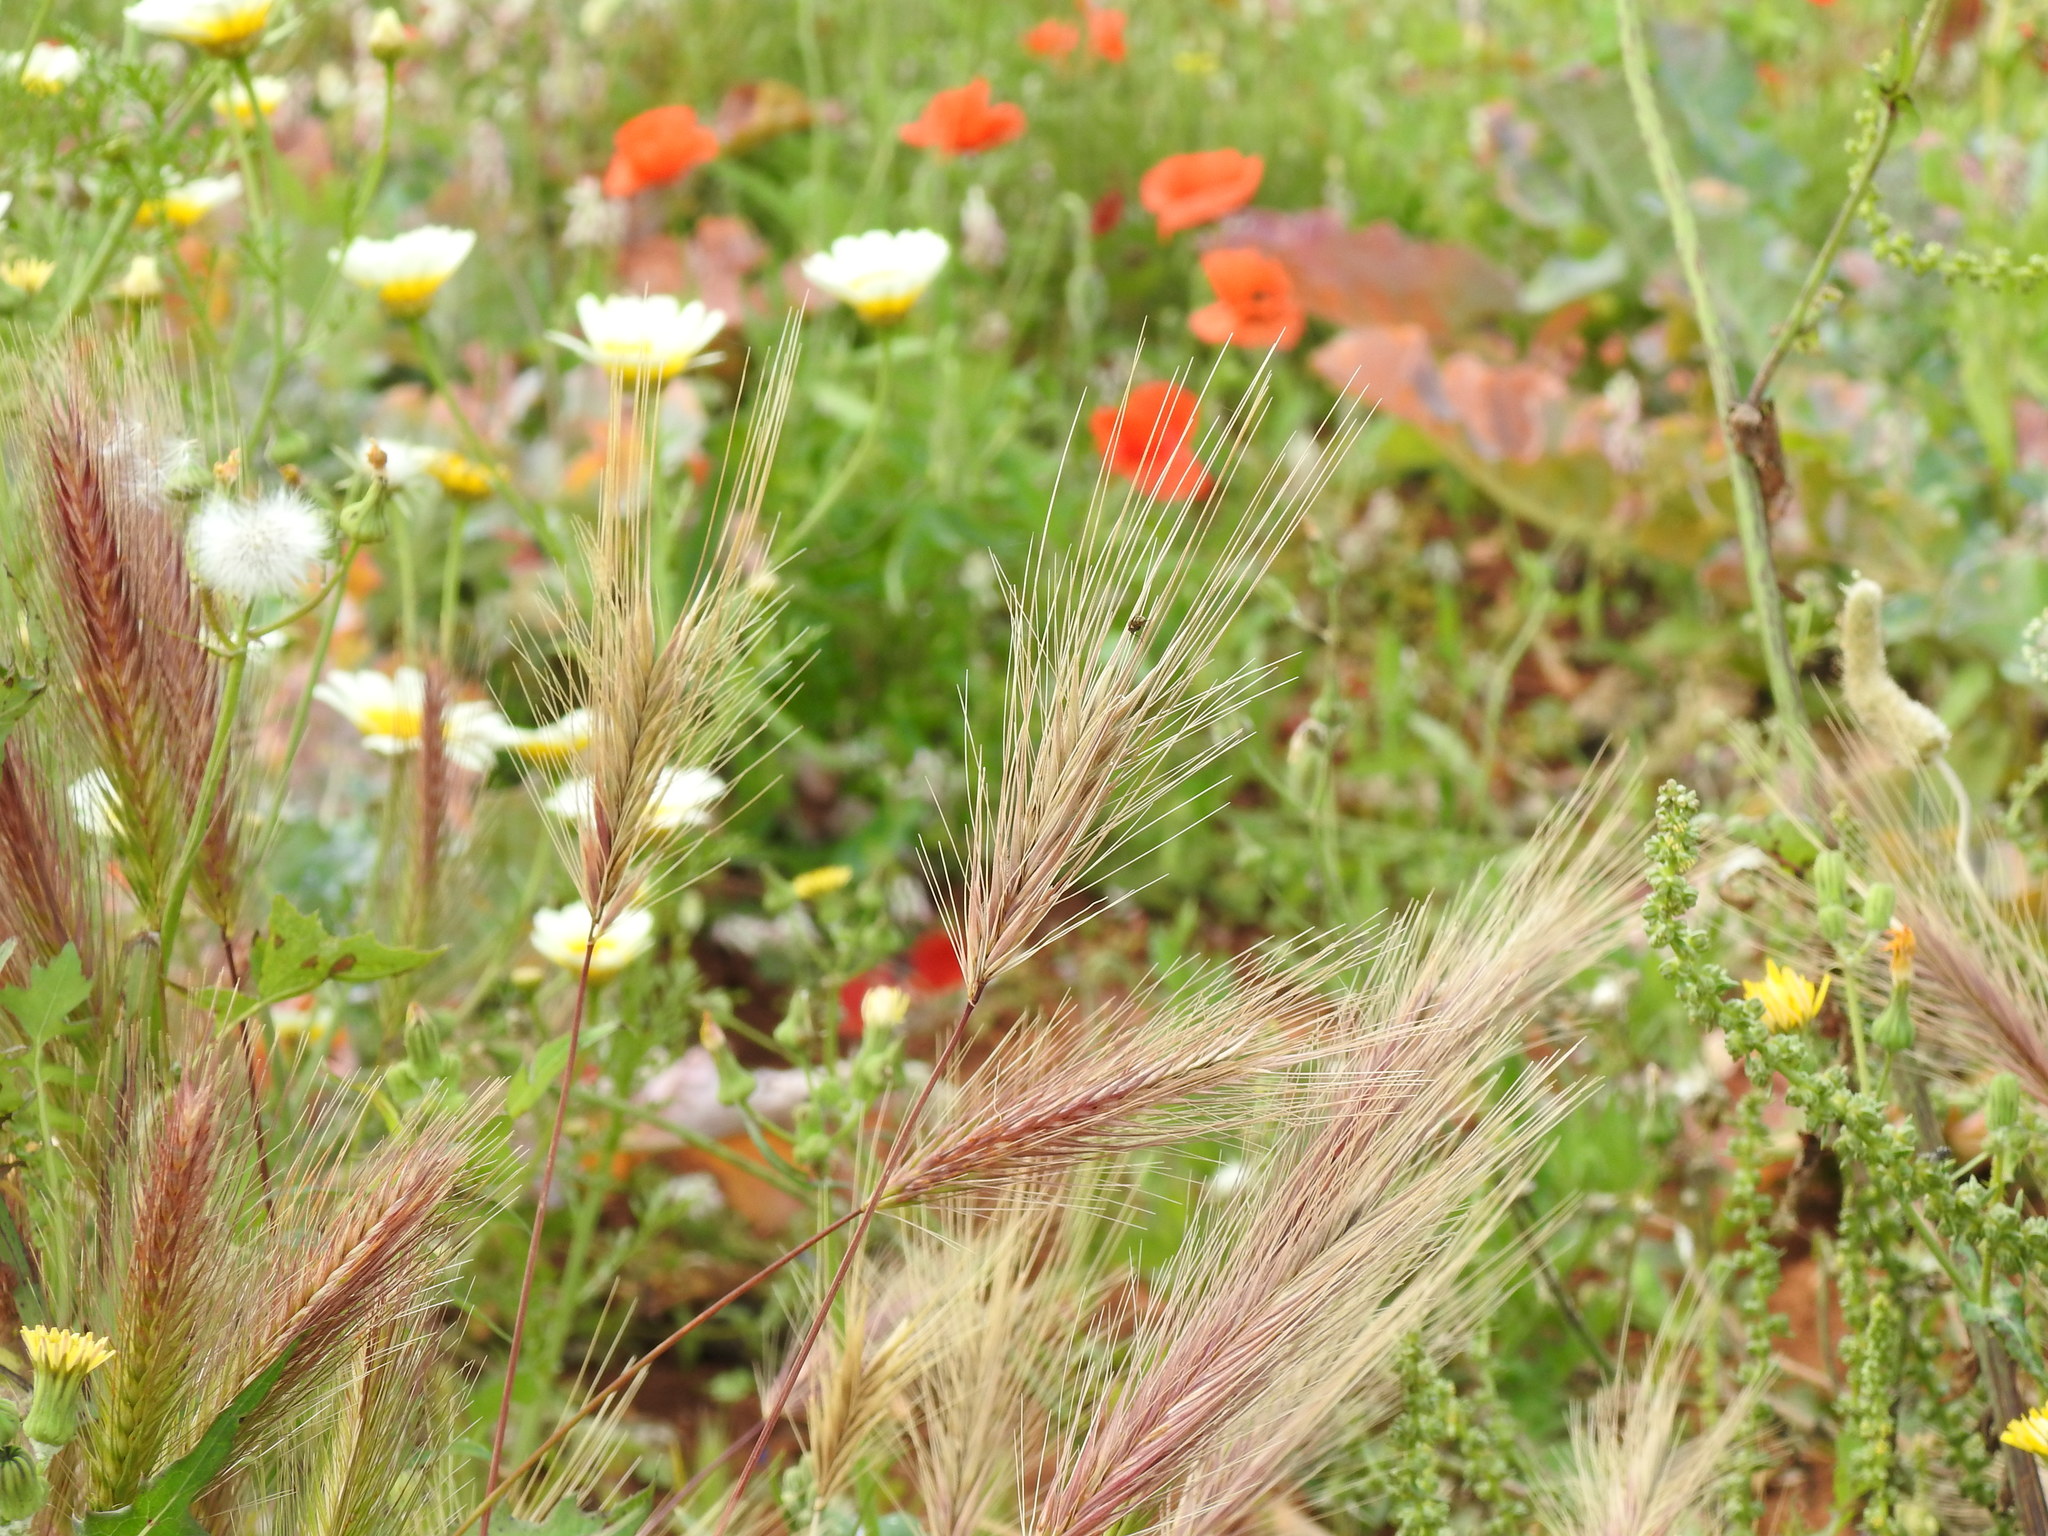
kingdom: Plantae
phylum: Tracheophyta
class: Liliopsida
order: Poales
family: Poaceae
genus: Hordeum
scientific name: Hordeum murinum
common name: Wall barley
